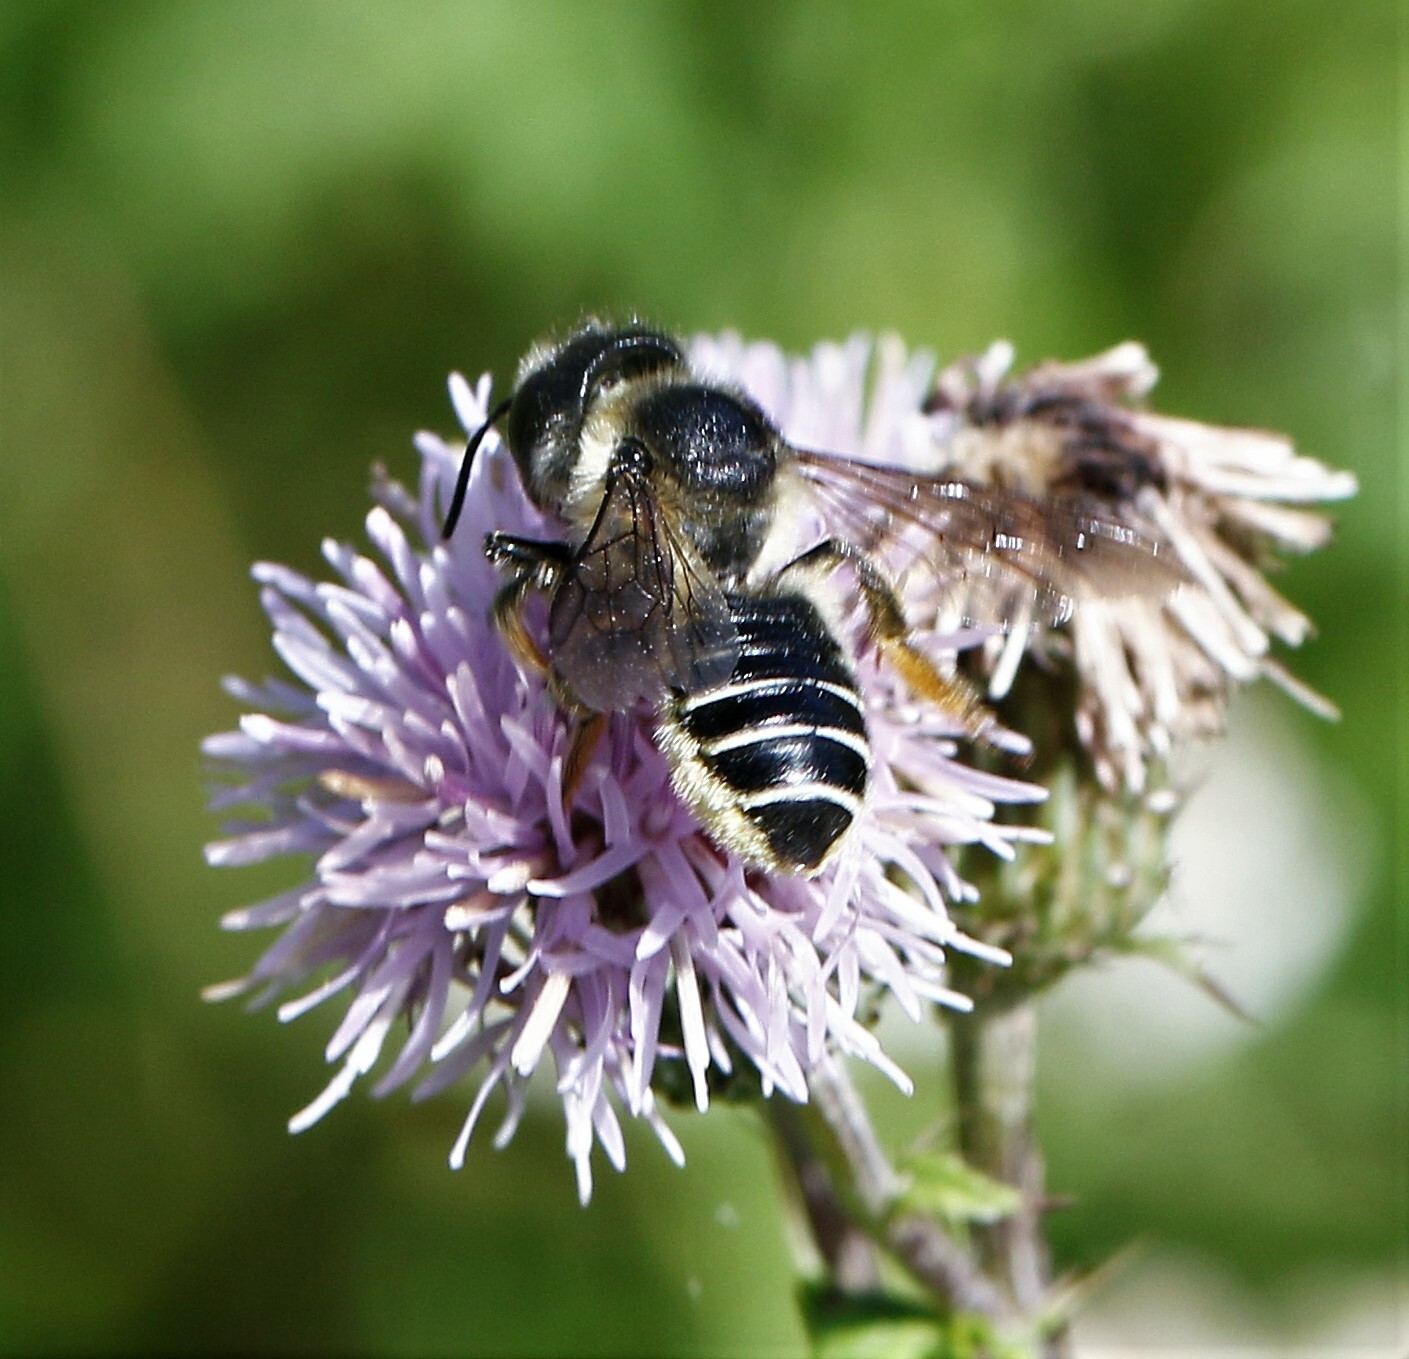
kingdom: Animalia
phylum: Arthropoda
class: Insecta
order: Hymenoptera
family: Megachilidae
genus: Megachile
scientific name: Megachile inermis
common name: Unarmed leafcutter bee
